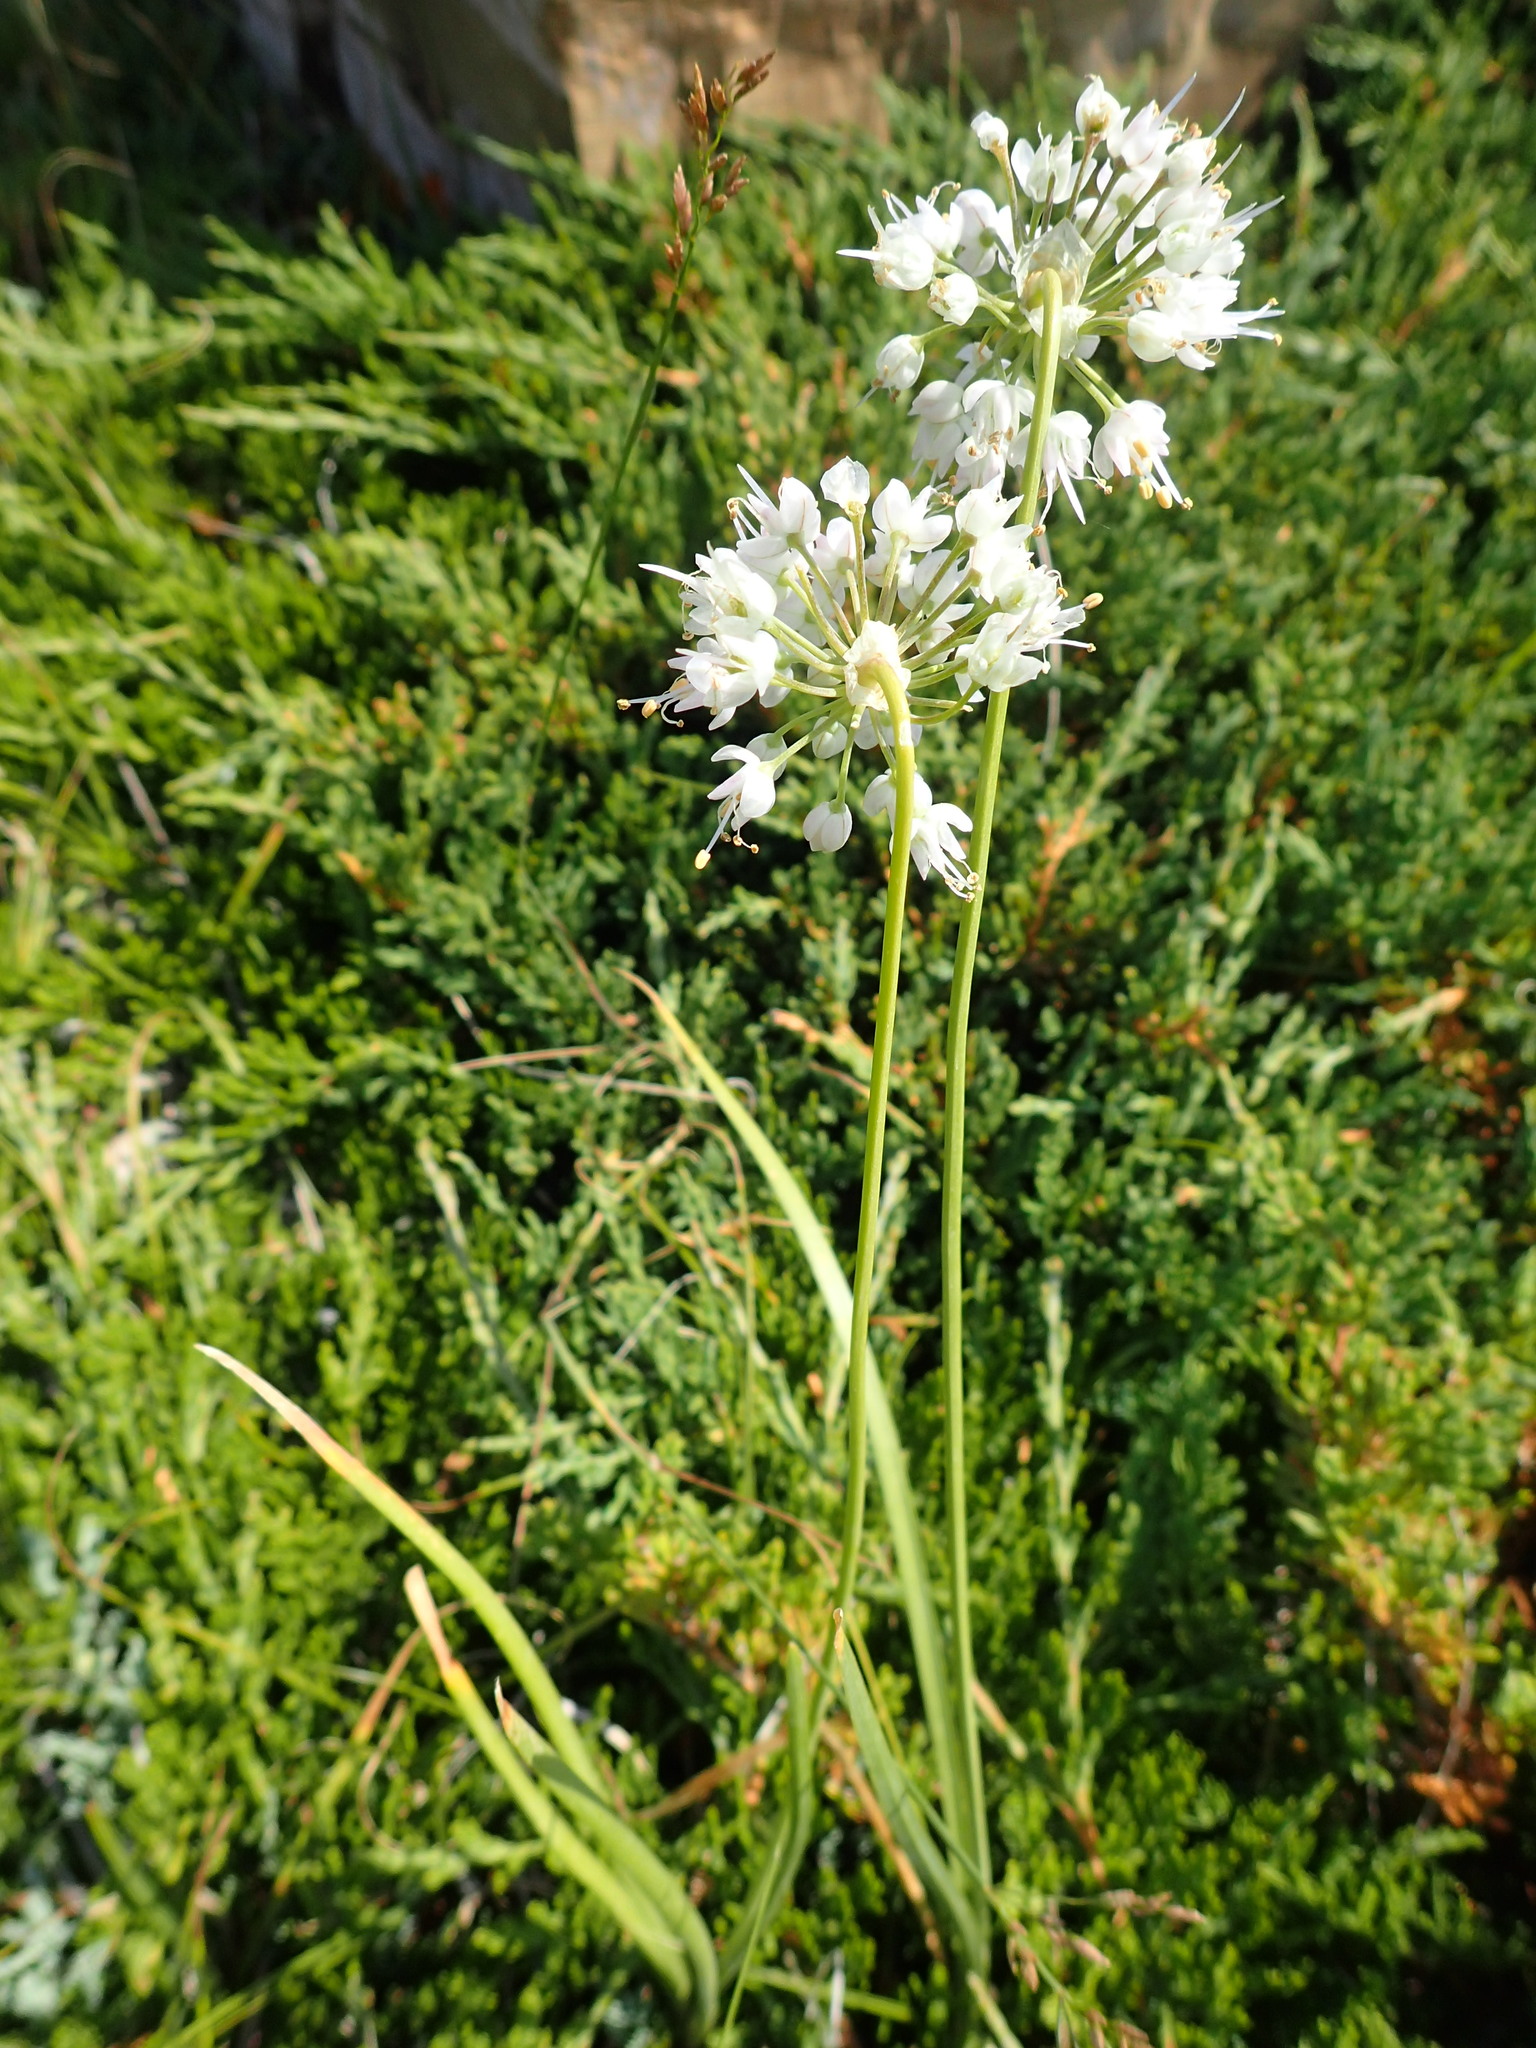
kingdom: Plantae
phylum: Tracheophyta
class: Liliopsida
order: Asparagales
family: Amaryllidaceae
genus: Allium
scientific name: Allium cernuum
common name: Nodding onion
